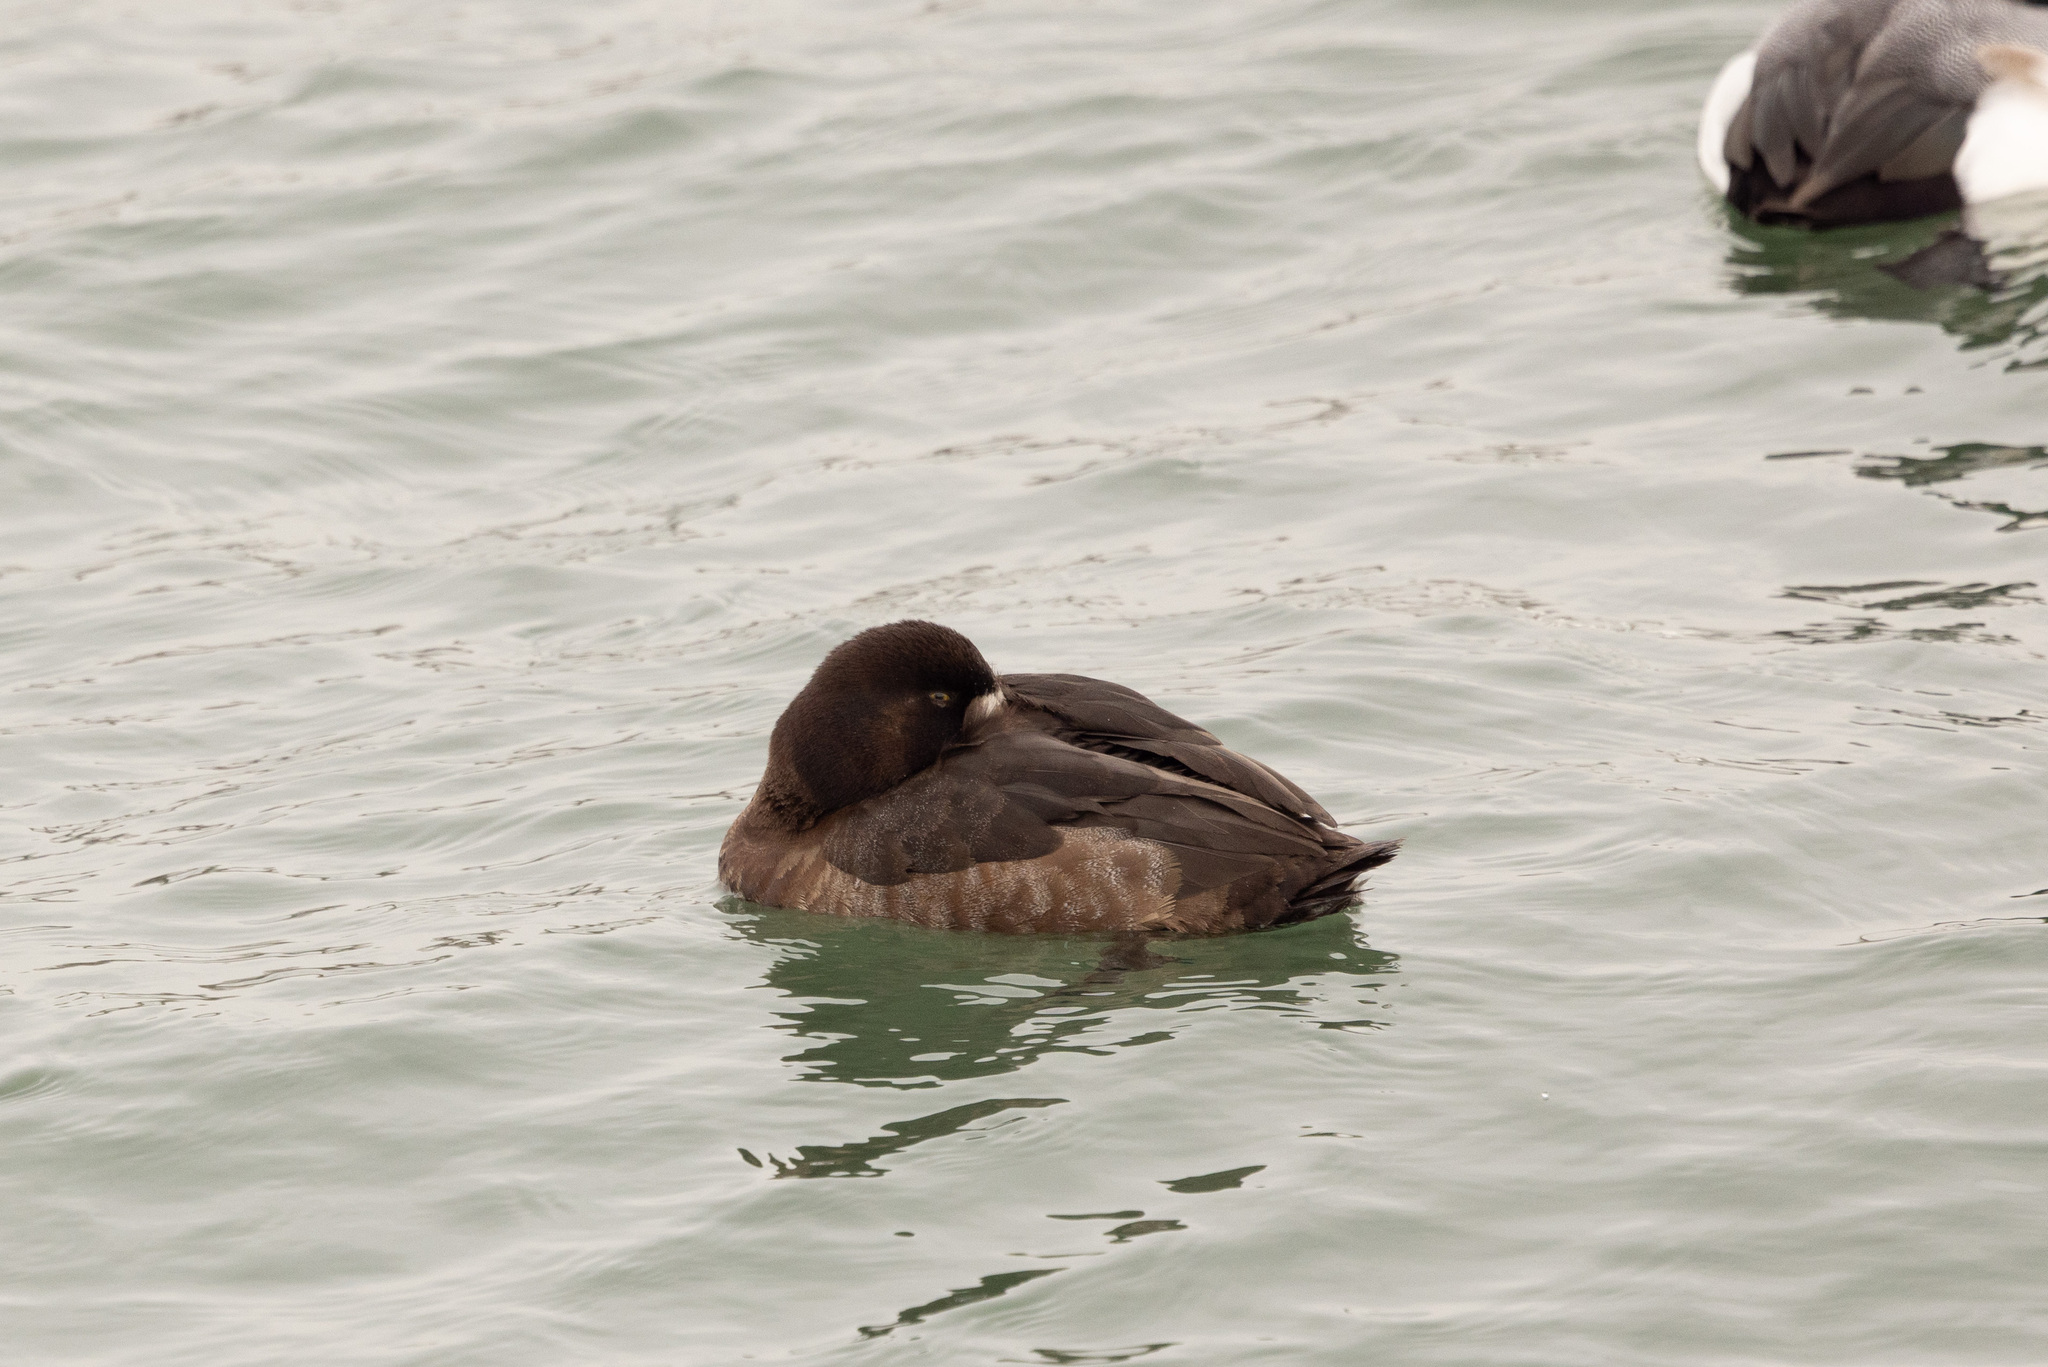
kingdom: Animalia
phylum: Chordata
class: Aves
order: Anseriformes
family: Anatidae
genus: Aythya
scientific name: Aythya marila
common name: Greater scaup
